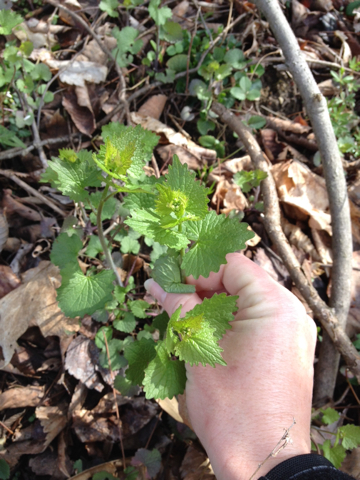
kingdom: Plantae
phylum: Tracheophyta
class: Magnoliopsida
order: Brassicales
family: Brassicaceae
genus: Alliaria
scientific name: Alliaria petiolata
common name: Garlic mustard
